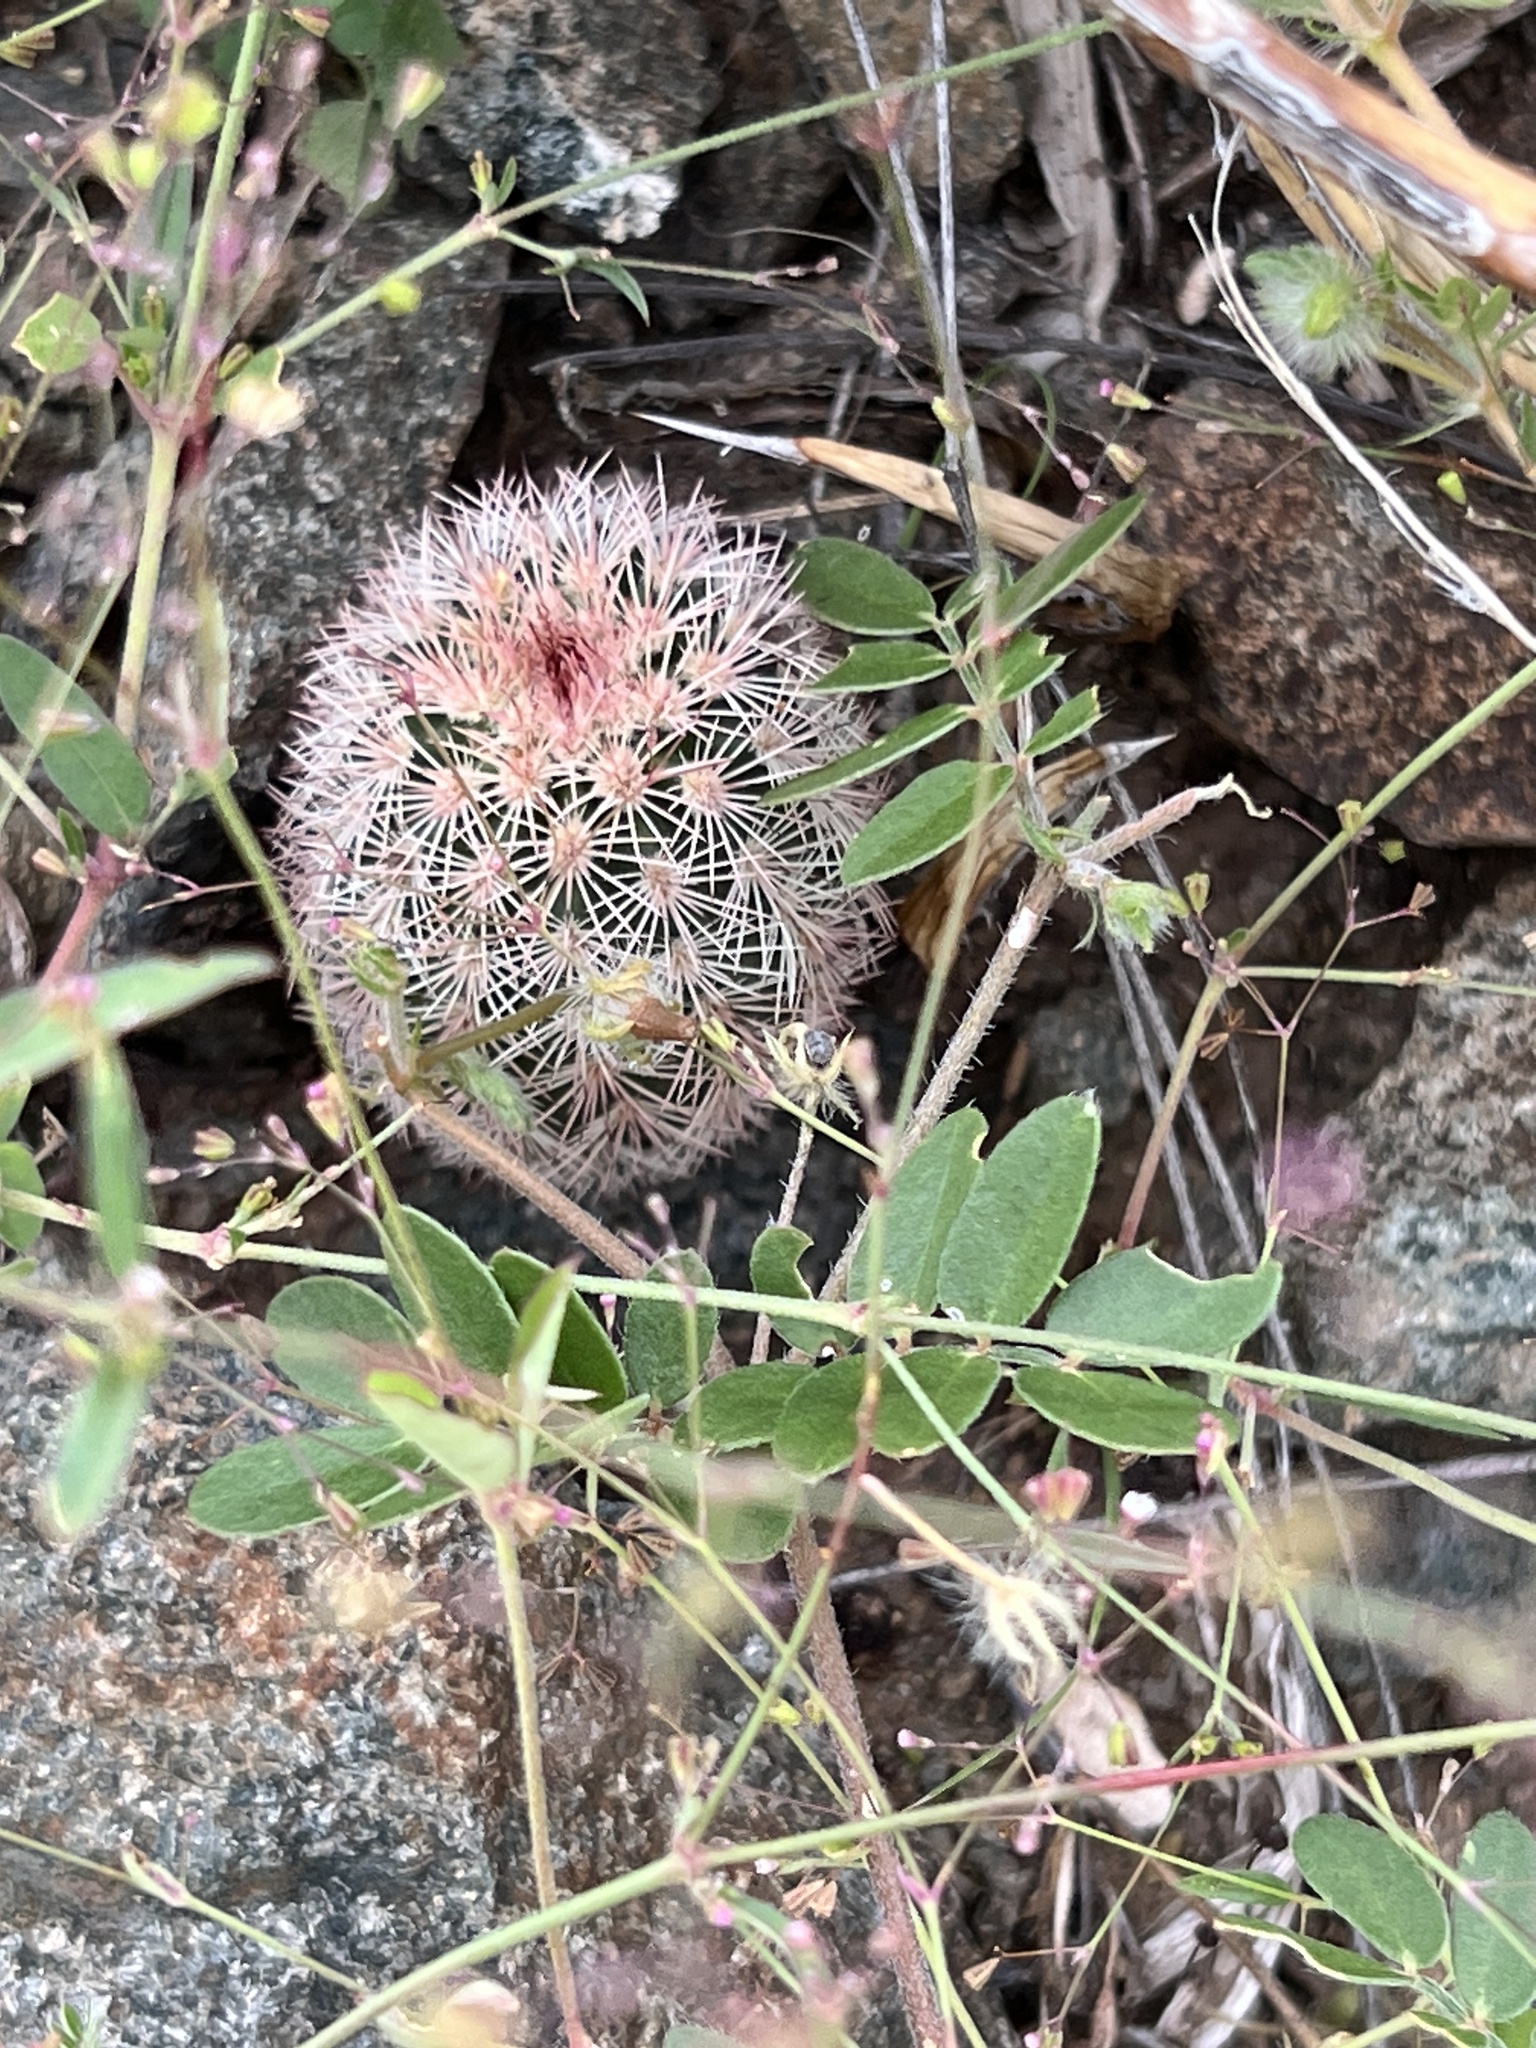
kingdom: Plantae
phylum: Tracheophyta
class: Magnoliopsida
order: Caryophyllales
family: Cactaceae
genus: Echinocereus
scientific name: Echinocereus dasyacanthus
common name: Spiny hedgehog cactus
